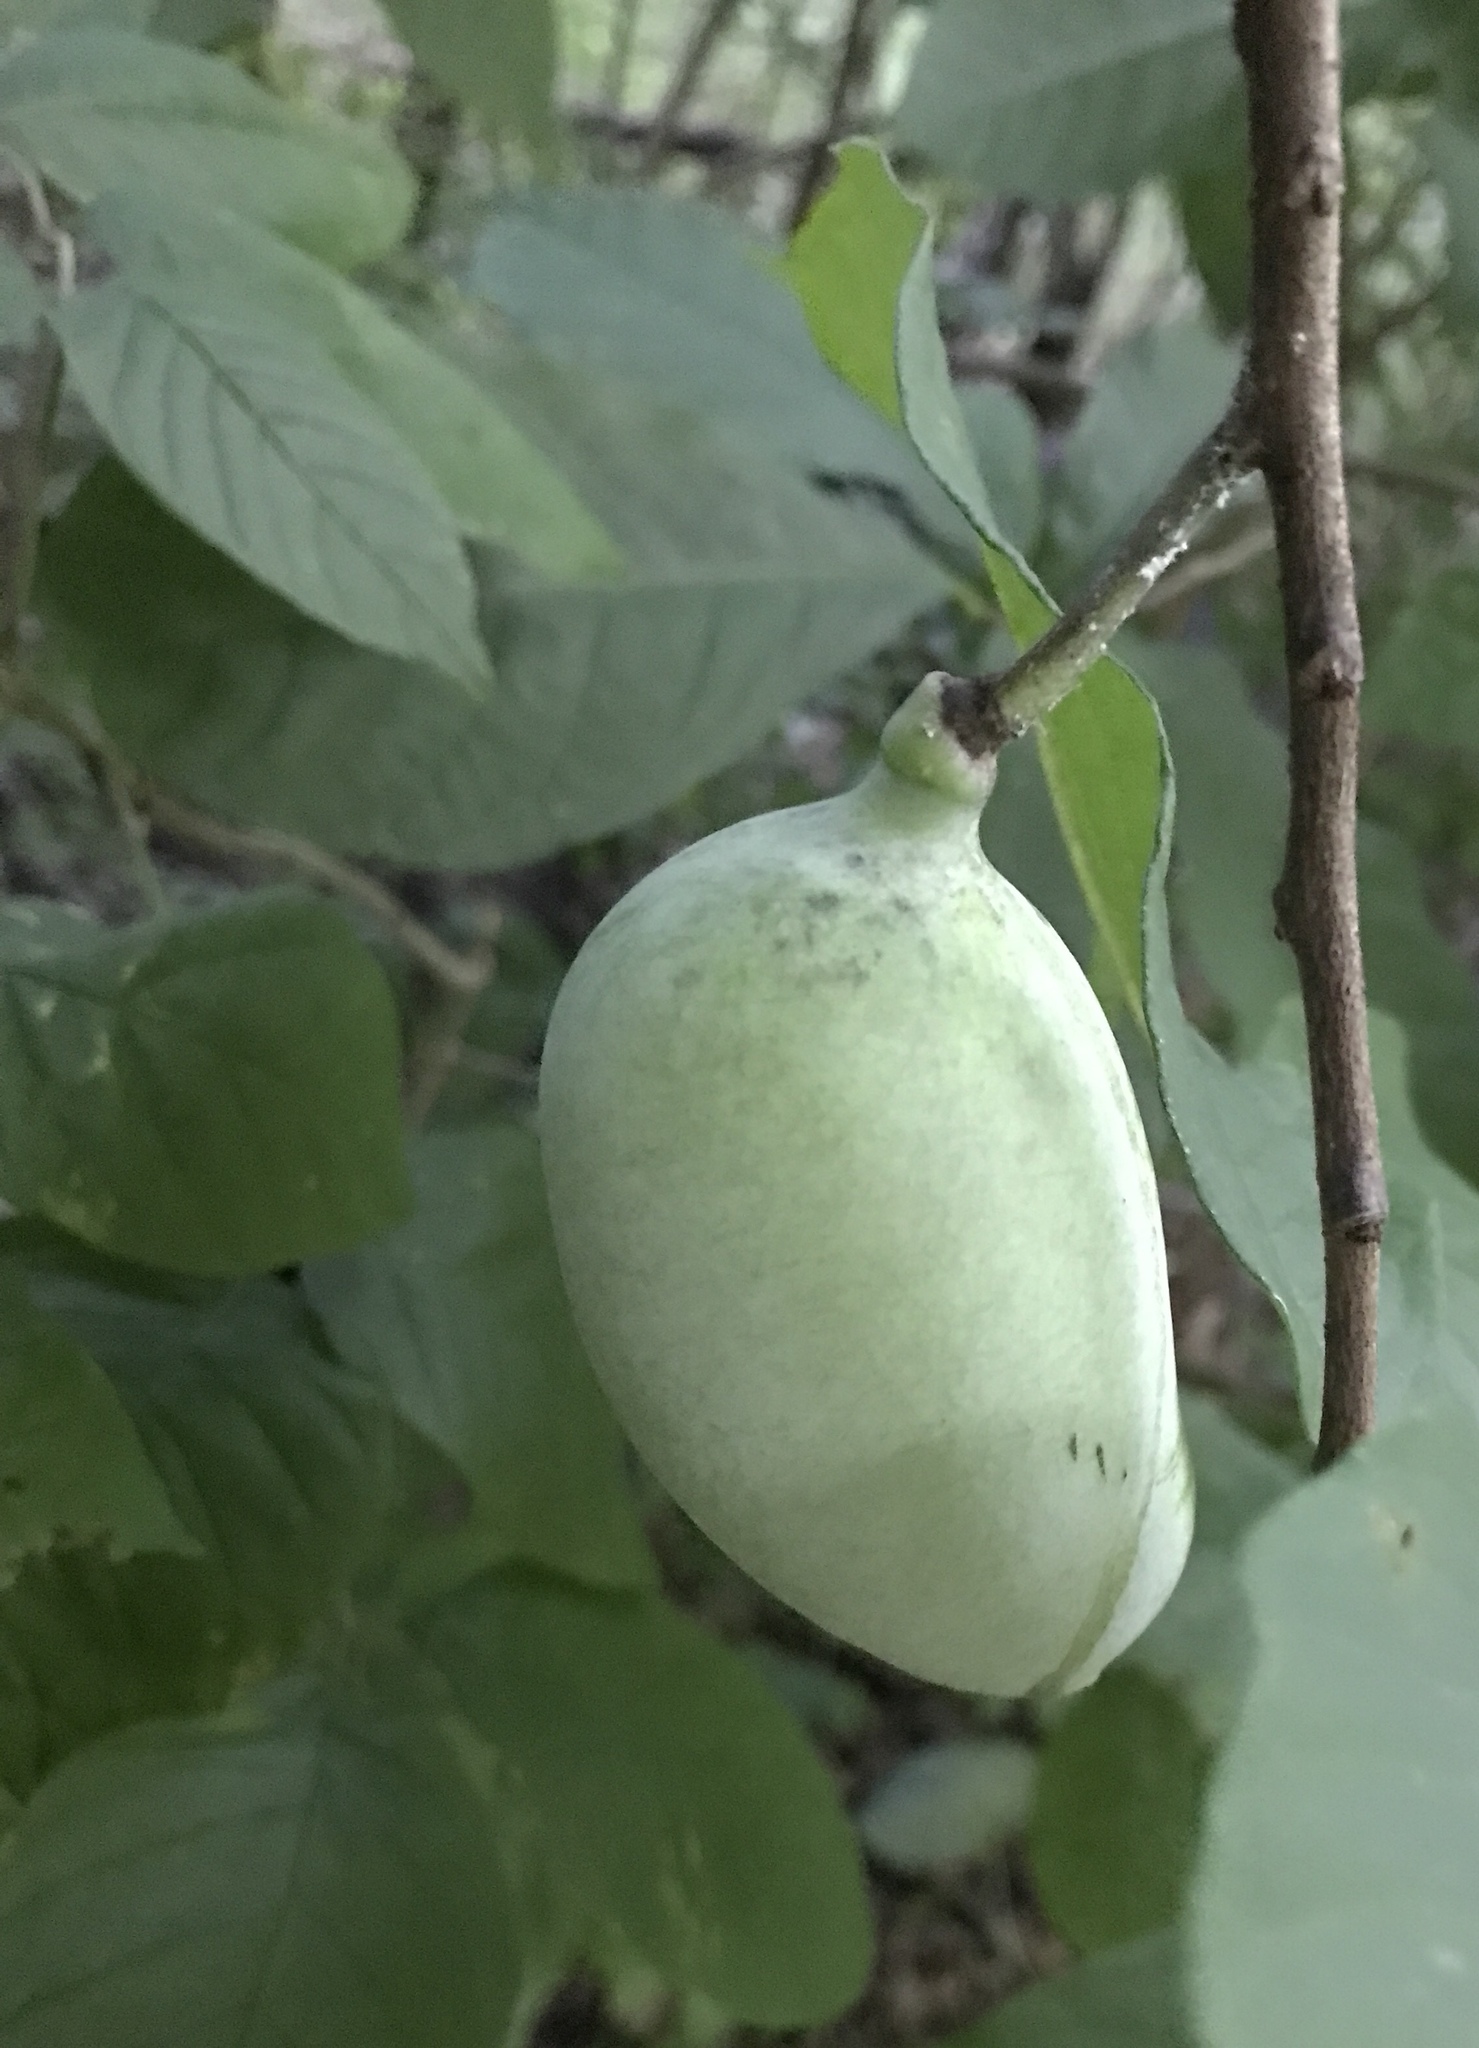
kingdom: Plantae
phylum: Tracheophyta
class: Magnoliopsida
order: Magnoliales
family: Annonaceae
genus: Asimina
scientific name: Asimina triloba
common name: Dog-banana
